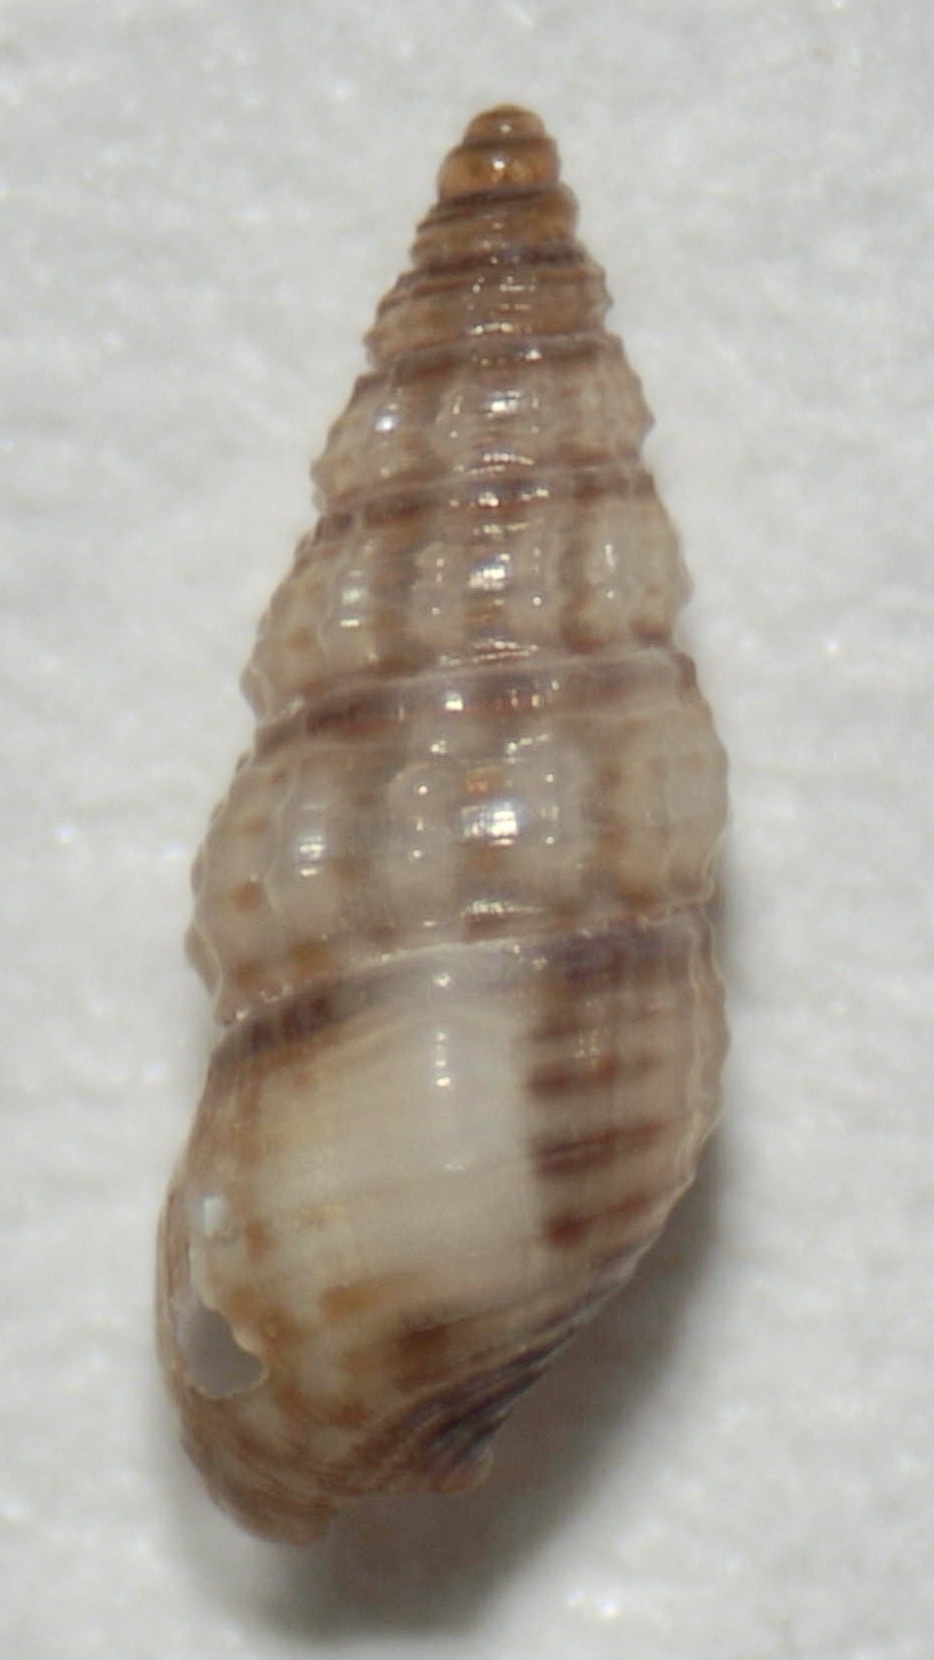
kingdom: Animalia
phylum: Mollusca
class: Gastropoda
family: Cerithiidae
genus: Bittiolum
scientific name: Bittiolum varium
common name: Grass cerith
